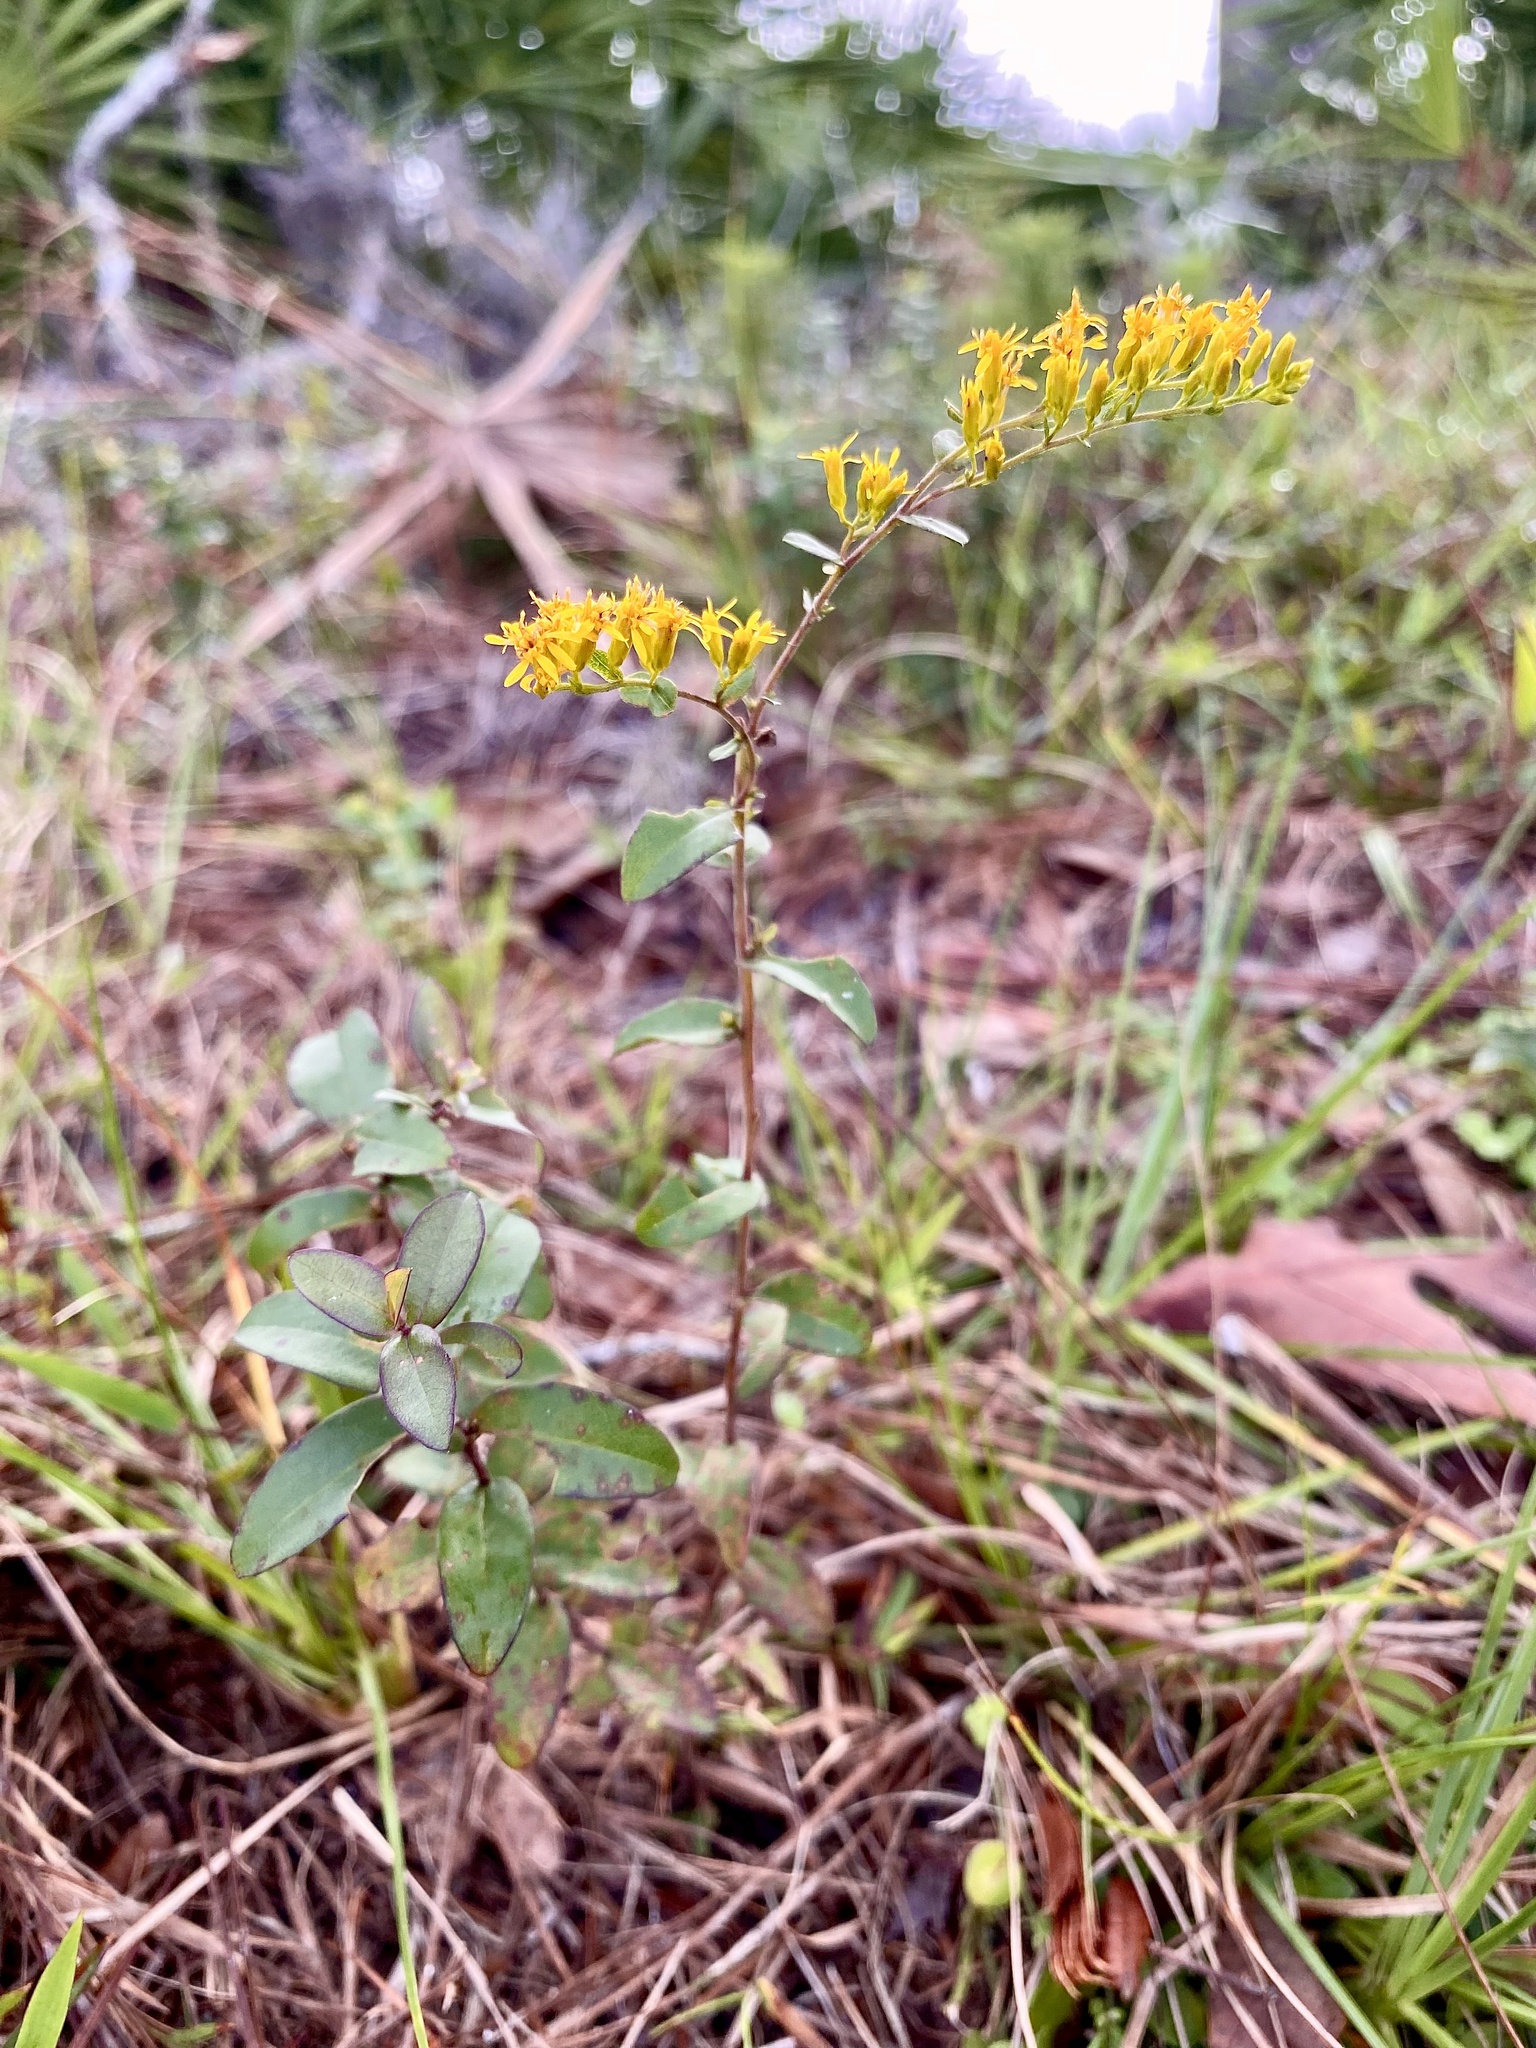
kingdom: Plantae
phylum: Tracheophyta
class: Magnoliopsida
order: Asterales
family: Asteraceae
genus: Solidago
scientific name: Solidago chapmanii
